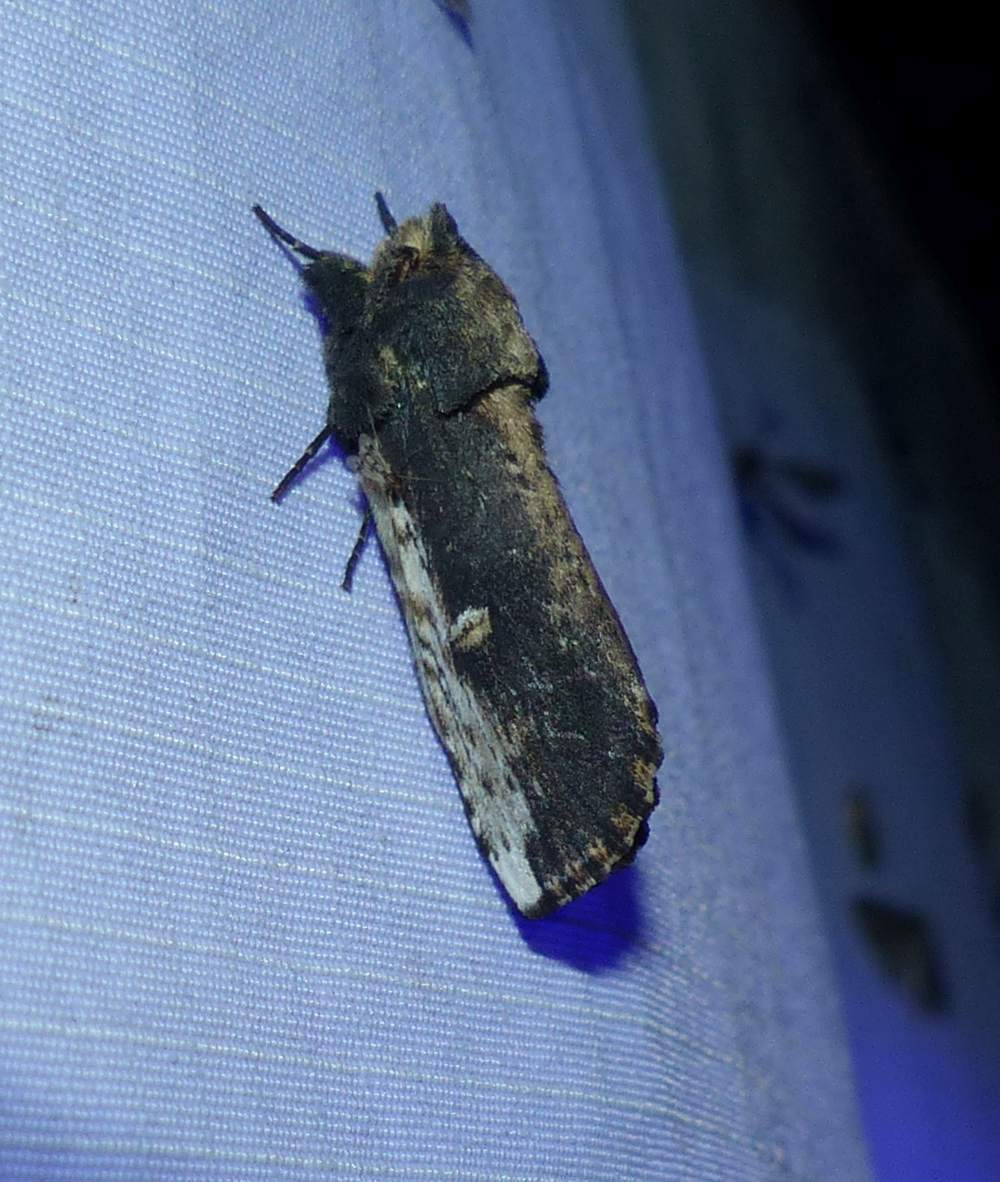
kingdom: Animalia
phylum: Arthropoda
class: Insecta
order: Lepidoptera
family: Notodontidae
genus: Schizura
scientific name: Schizura ipomaeae
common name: Morning-glory prominent
